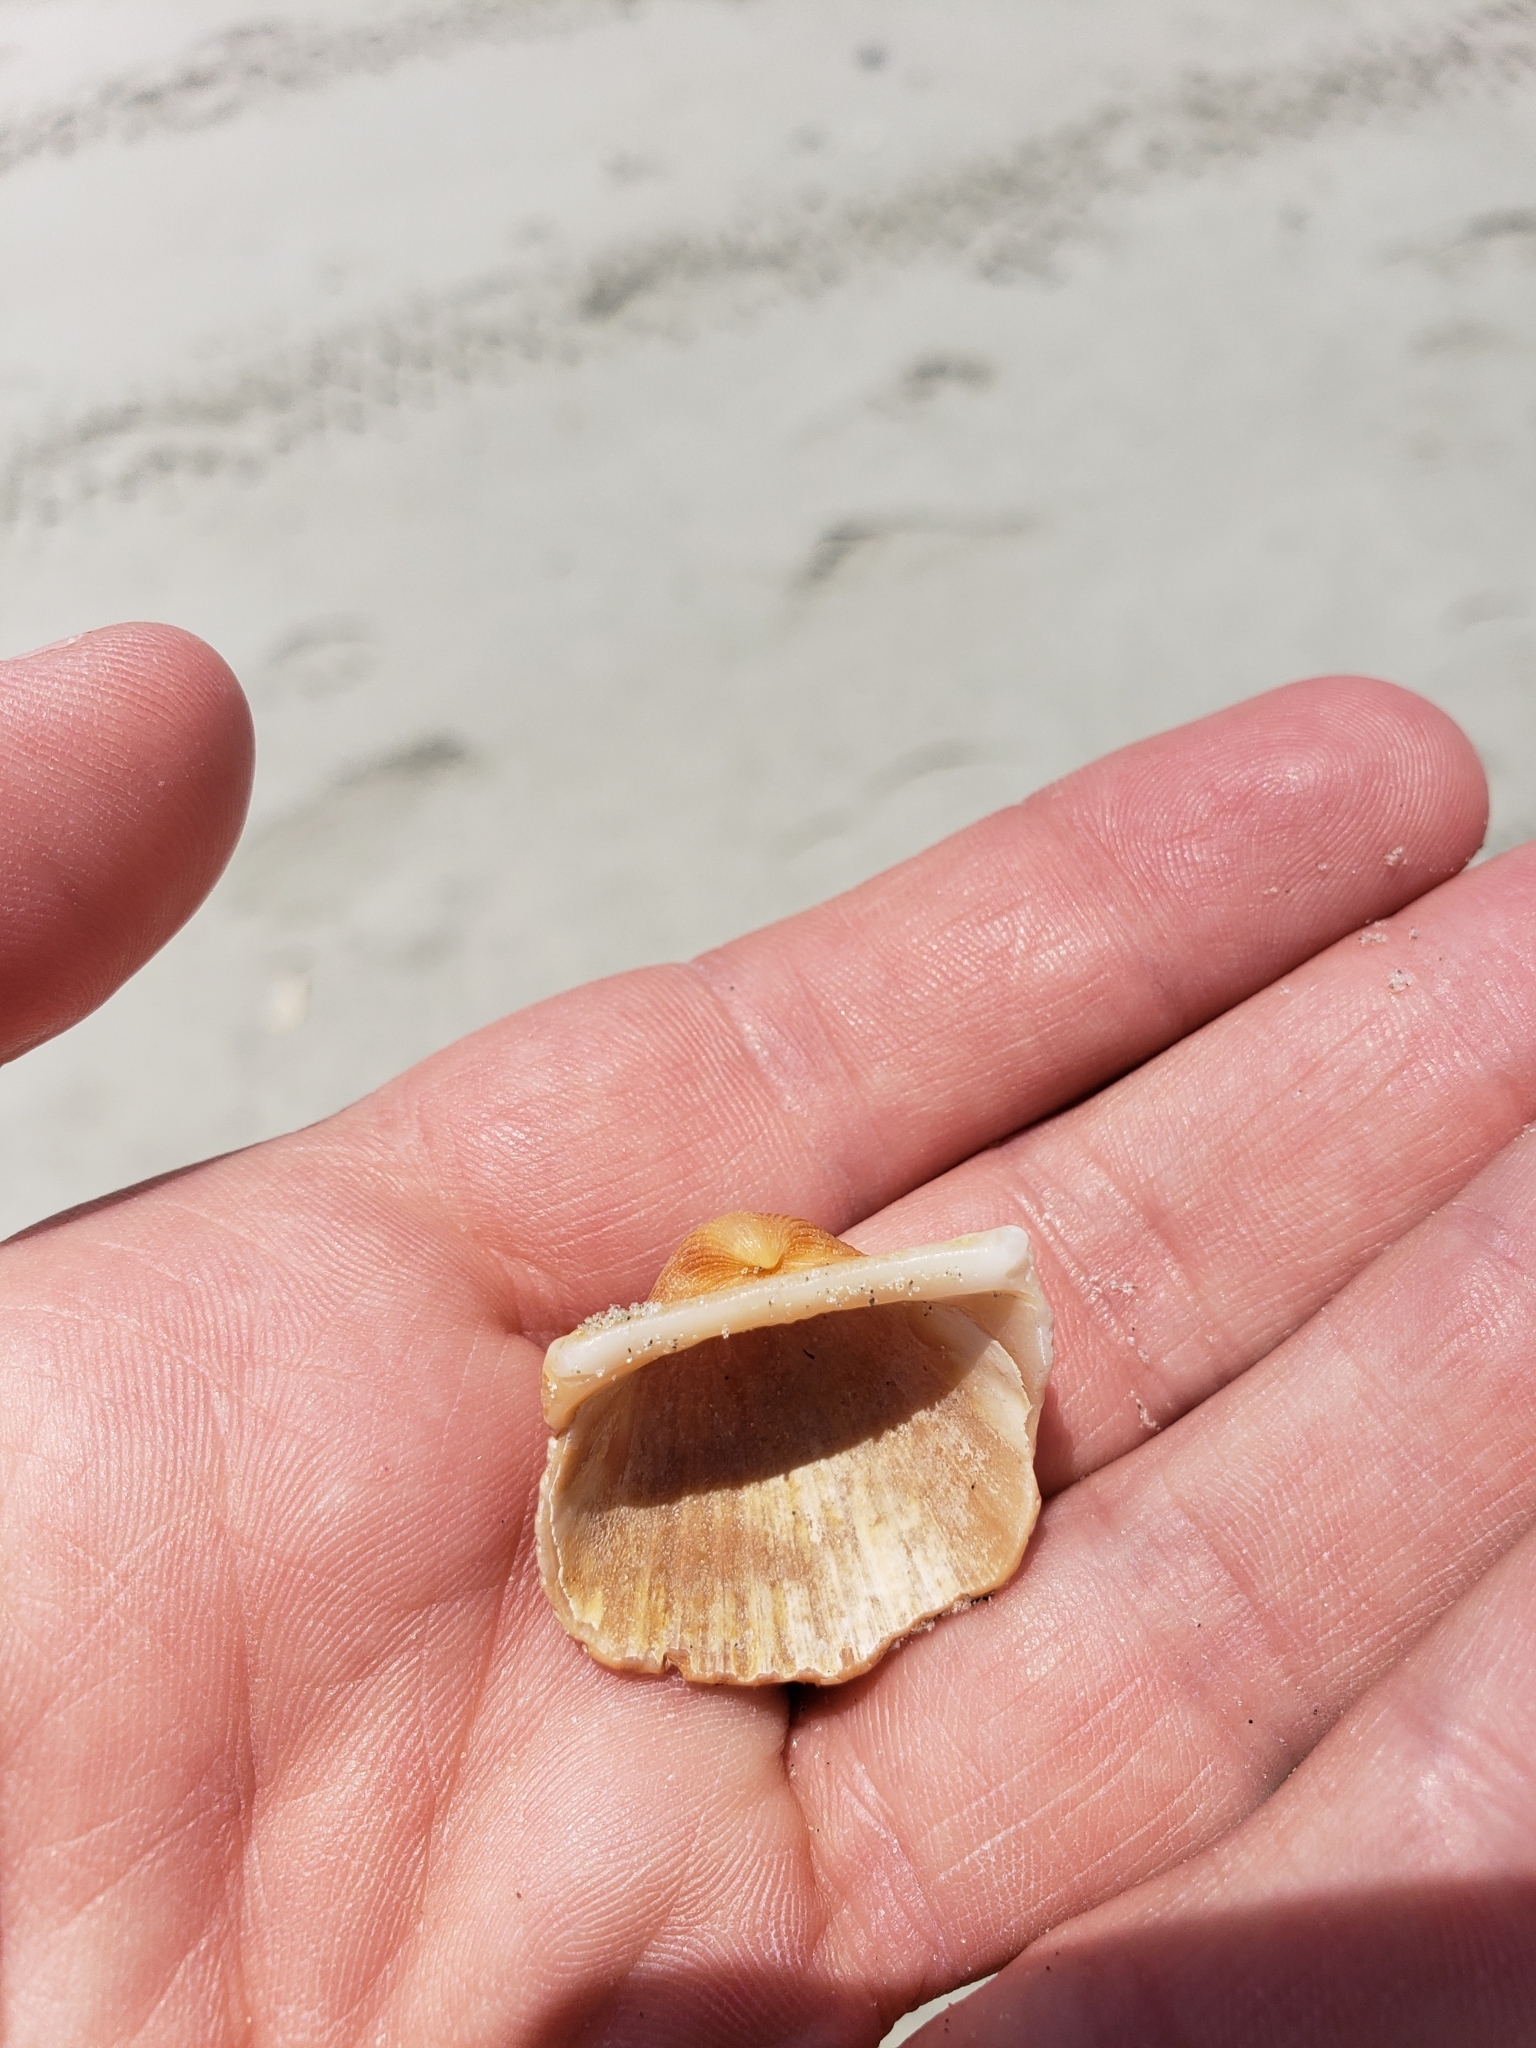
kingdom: Animalia
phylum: Mollusca
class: Bivalvia
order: Arcida
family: Arcidae
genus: Anadara
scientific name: Anadara brasiliana
